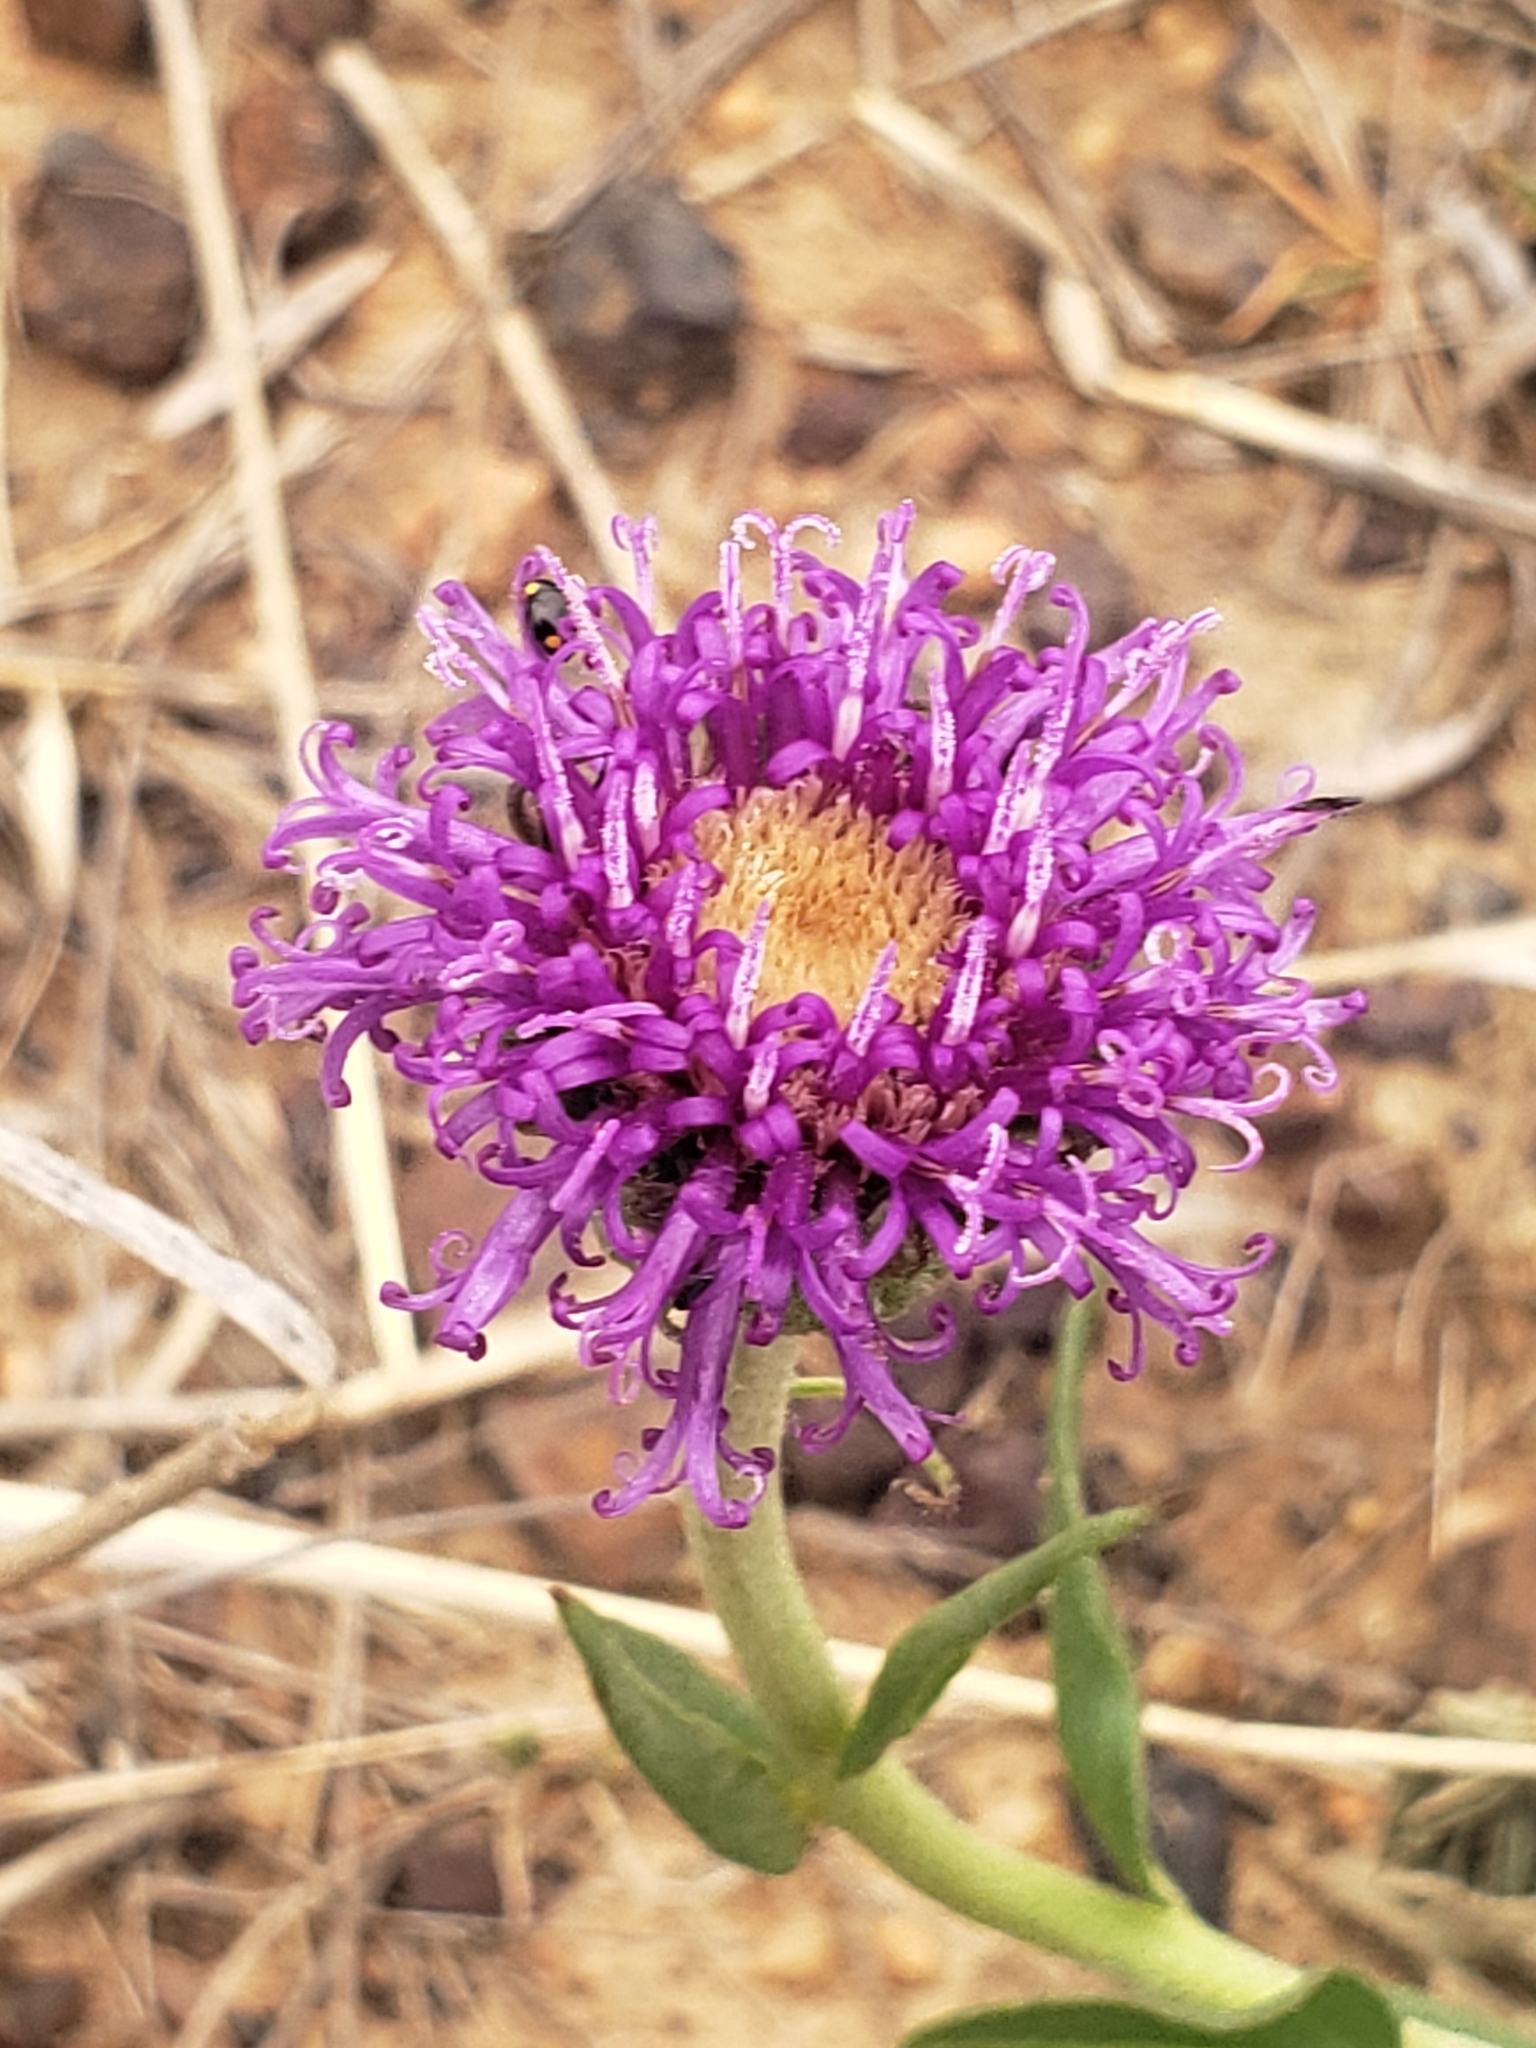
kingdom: Plantae
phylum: Tracheophyta
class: Magnoliopsida
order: Asterales
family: Asteraceae
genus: Pseudopegolettia
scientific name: Pseudopegolettia tenella
